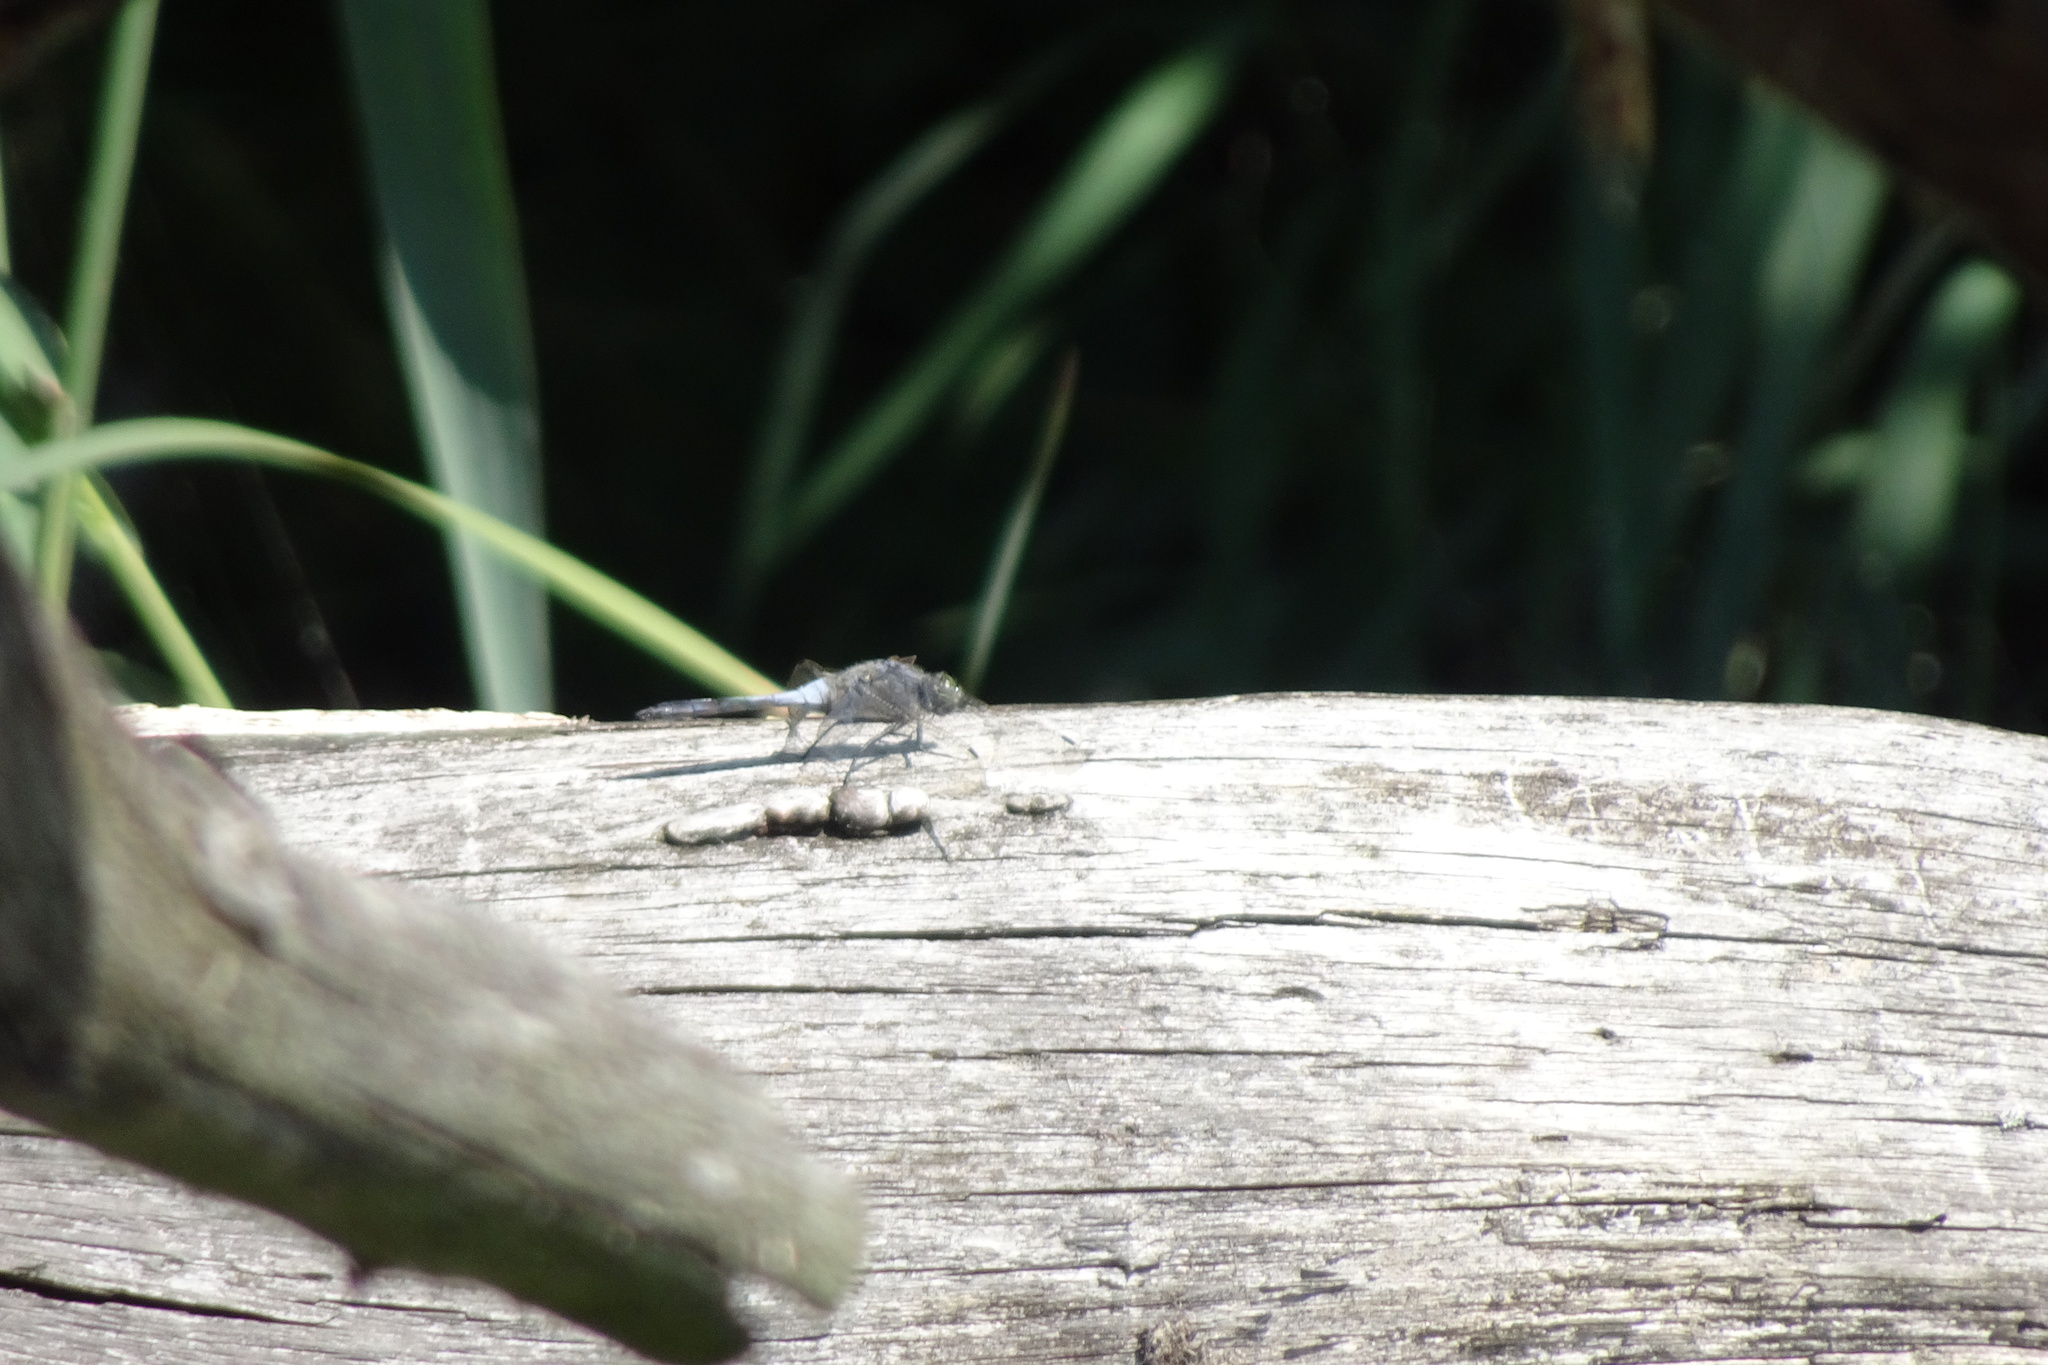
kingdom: Animalia
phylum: Arthropoda
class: Insecta
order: Odonata
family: Libellulidae
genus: Orthetrum
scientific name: Orthetrum cancellatum
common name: Black-tailed skimmer
